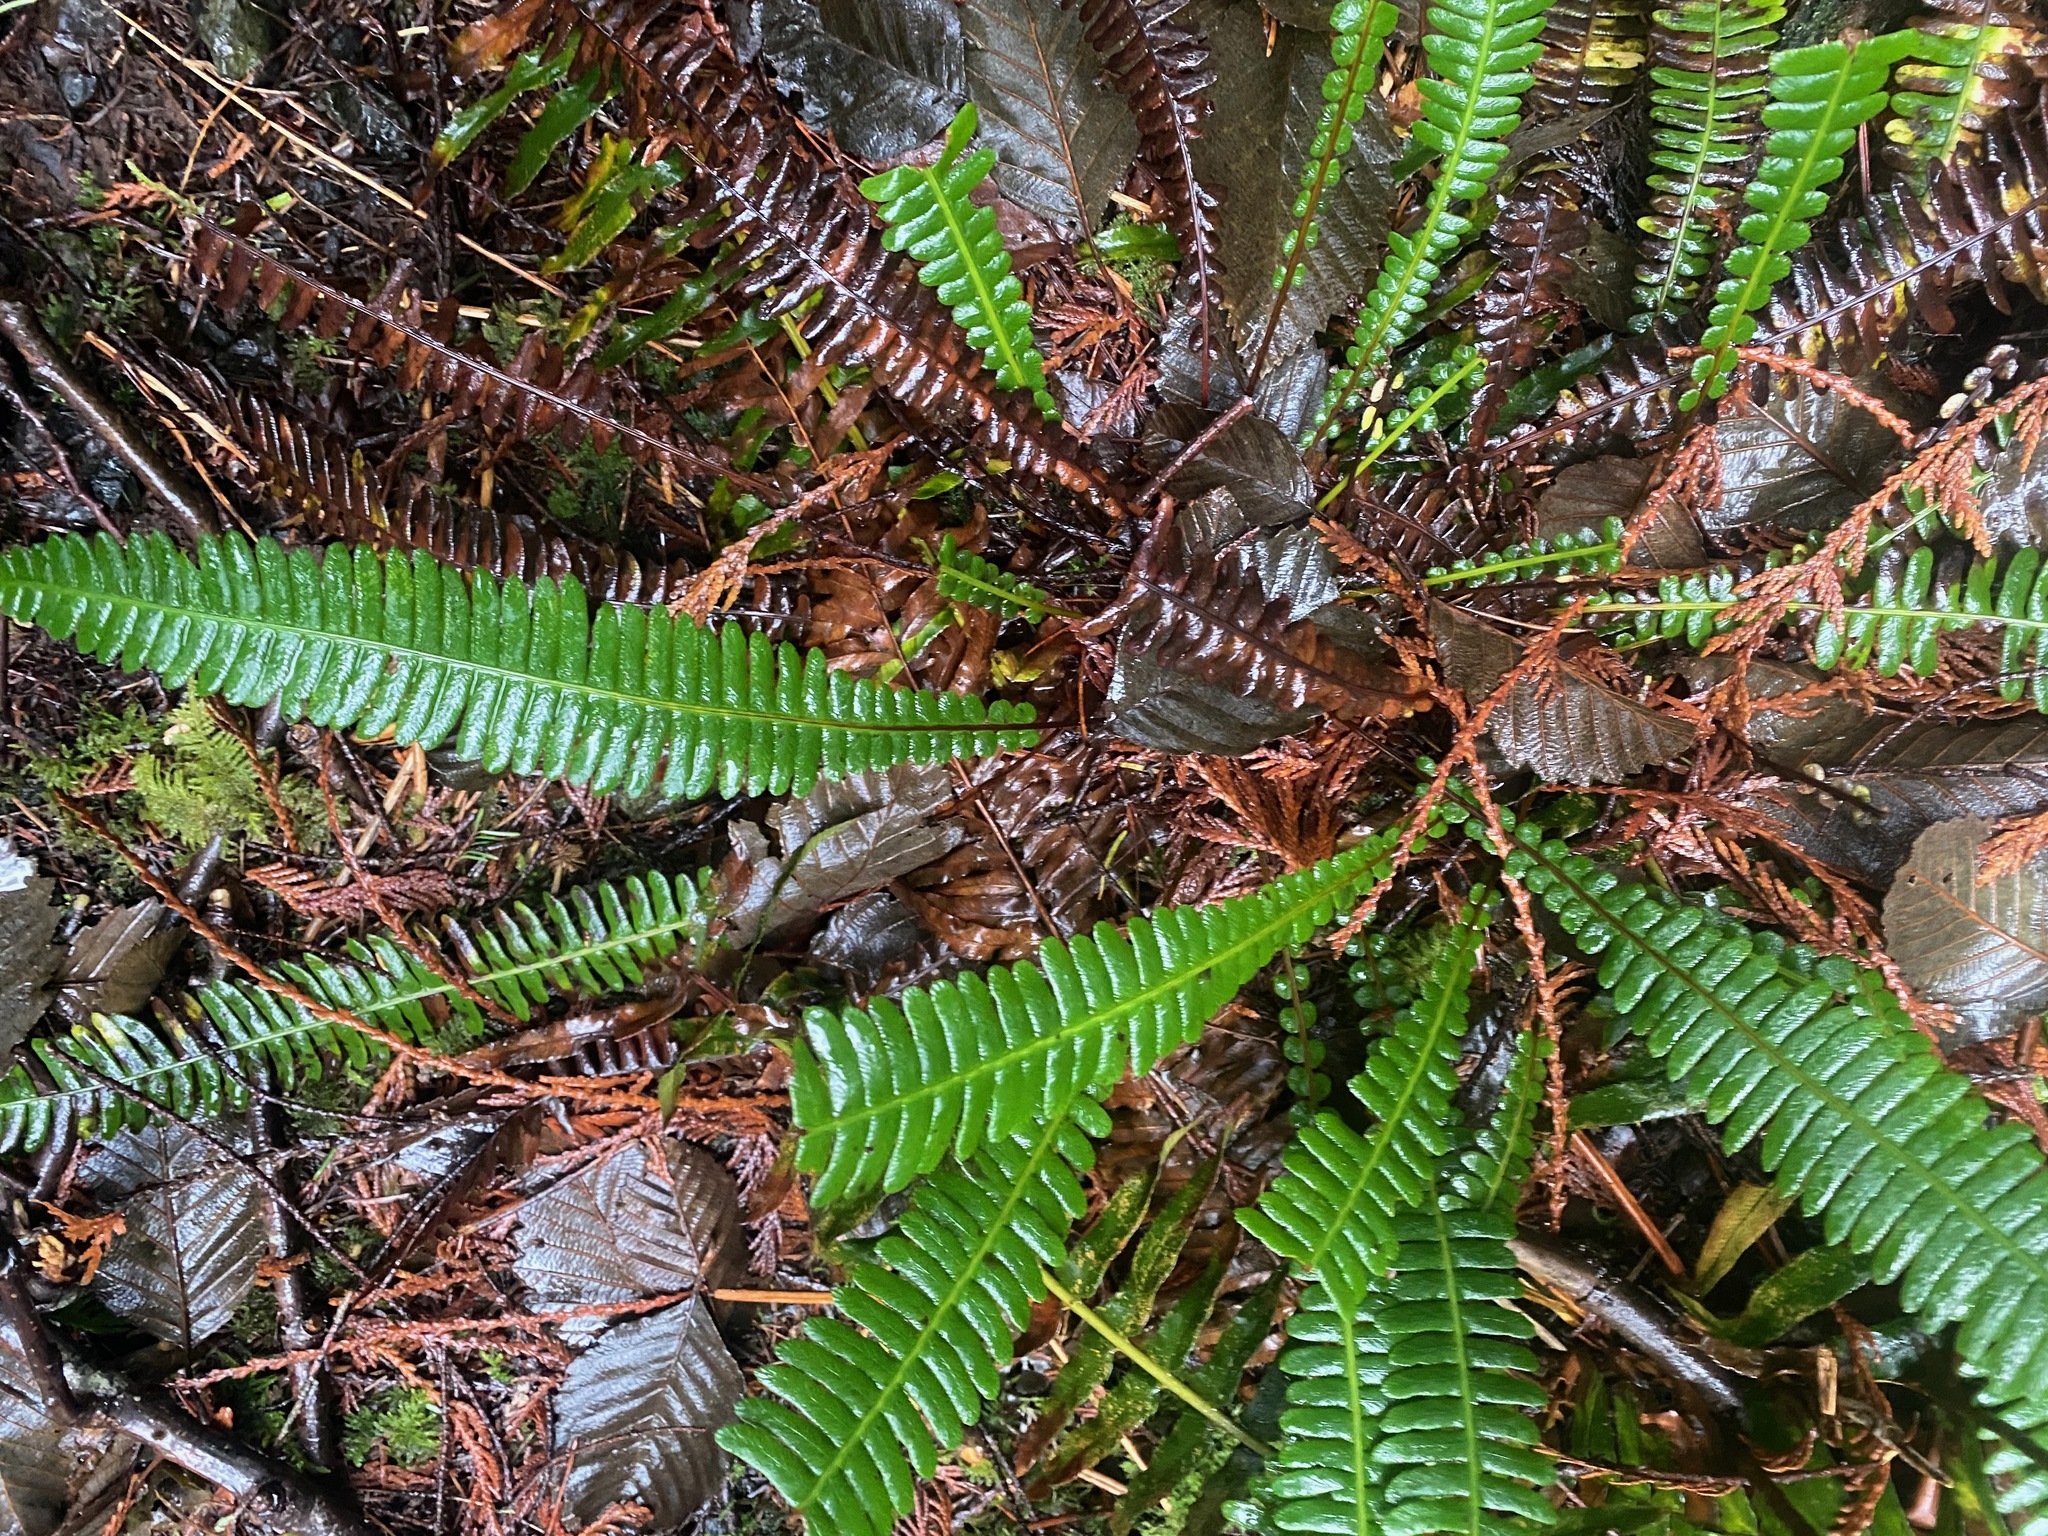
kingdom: Plantae
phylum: Tracheophyta
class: Polypodiopsida
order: Polypodiales
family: Blechnaceae
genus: Struthiopteris
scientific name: Struthiopteris spicant
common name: Deer fern
